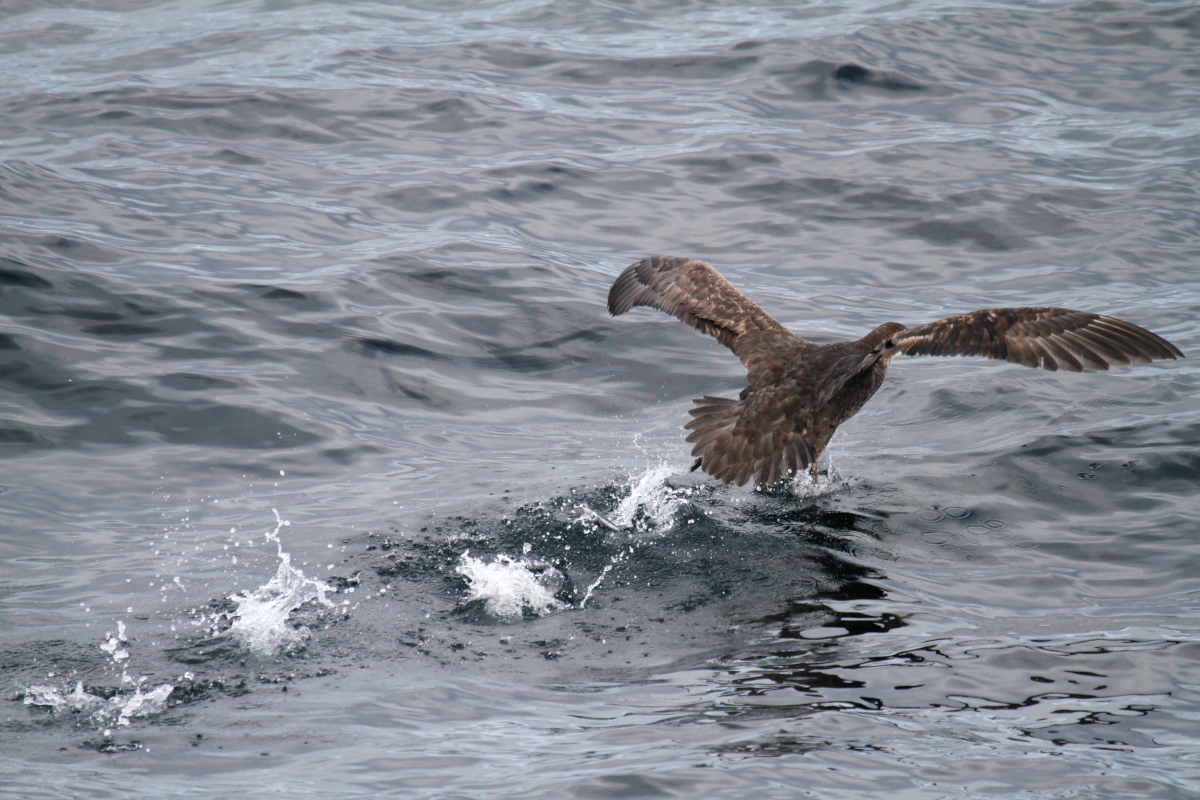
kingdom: Animalia
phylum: Chordata
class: Aves
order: Procellariiformes
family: Procellariidae
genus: Macronectes
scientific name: Macronectes giganteus
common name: Southern giant petrel
